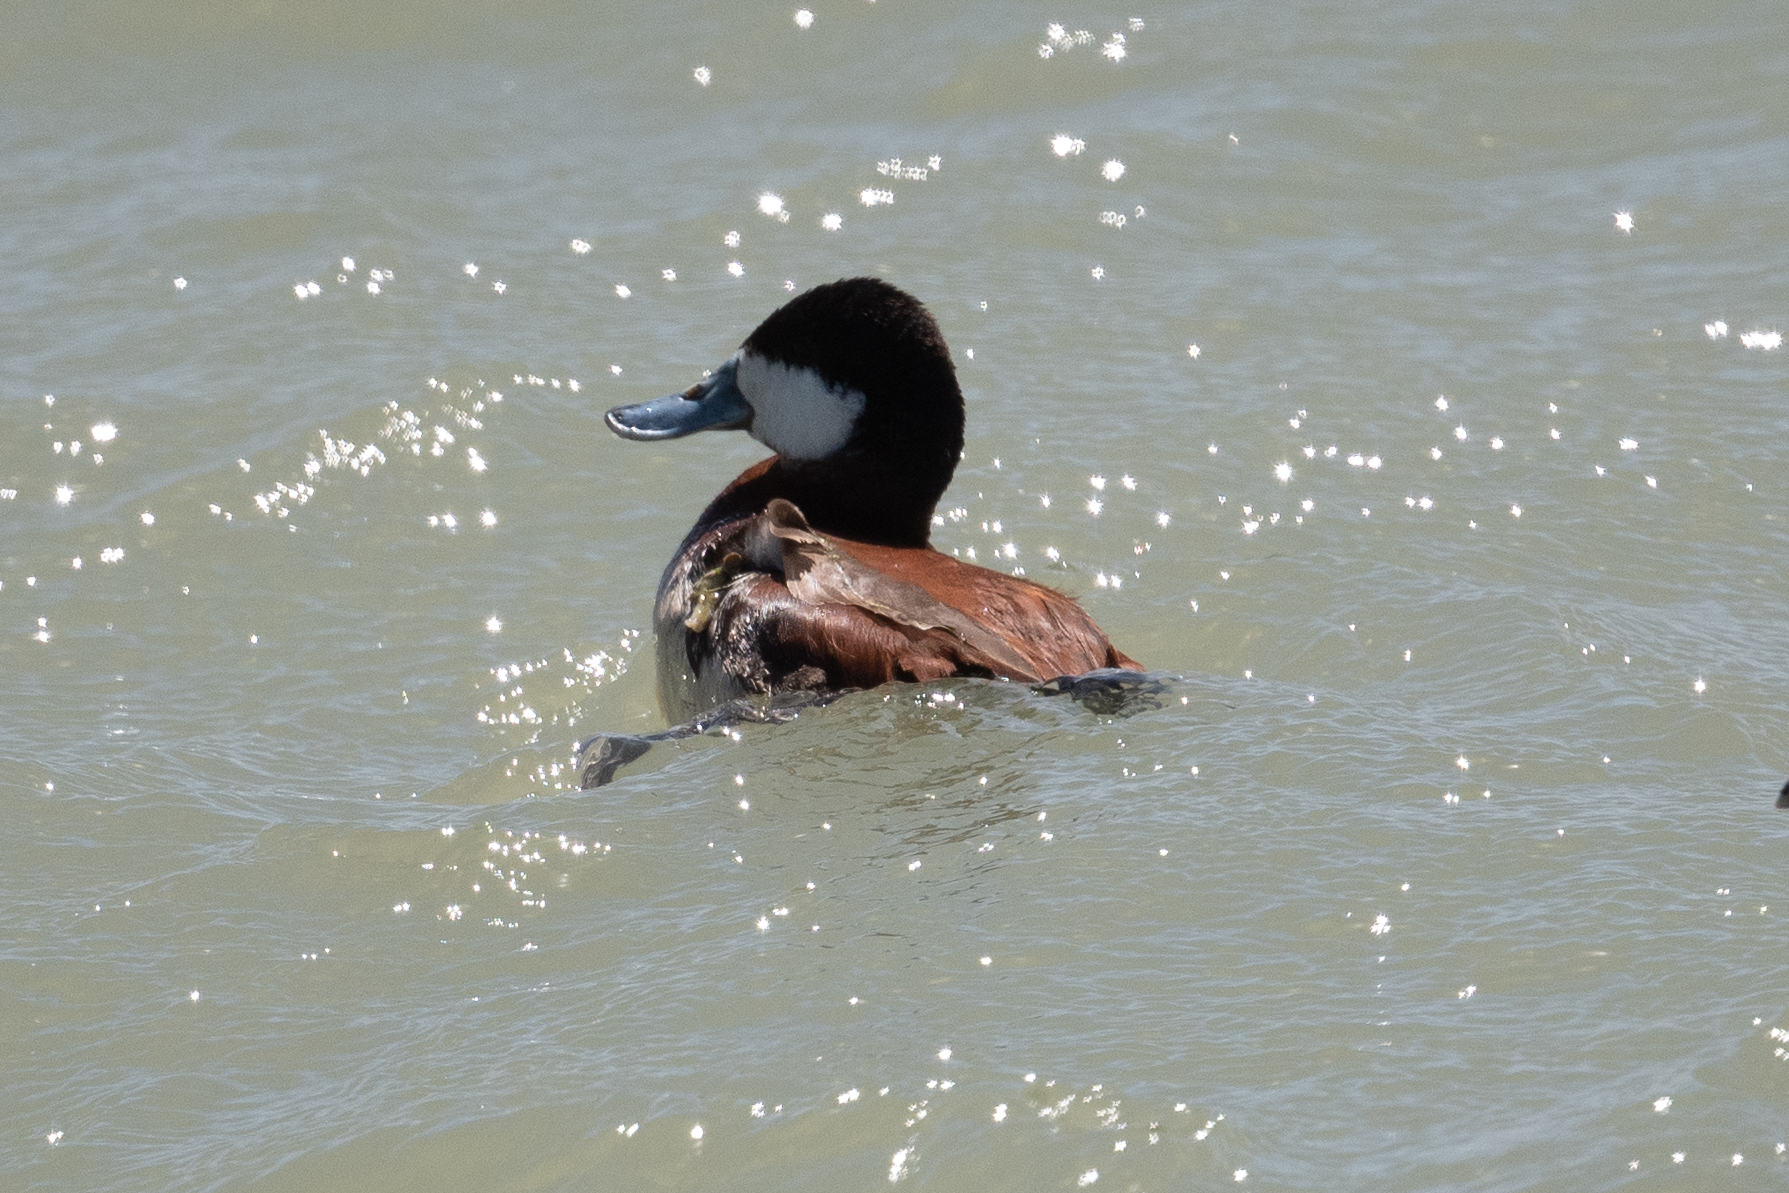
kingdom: Animalia
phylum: Chordata
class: Aves
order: Anseriformes
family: Anatidae
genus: Oxyura
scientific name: Oxyura jamaicensis
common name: Ruddy duck
